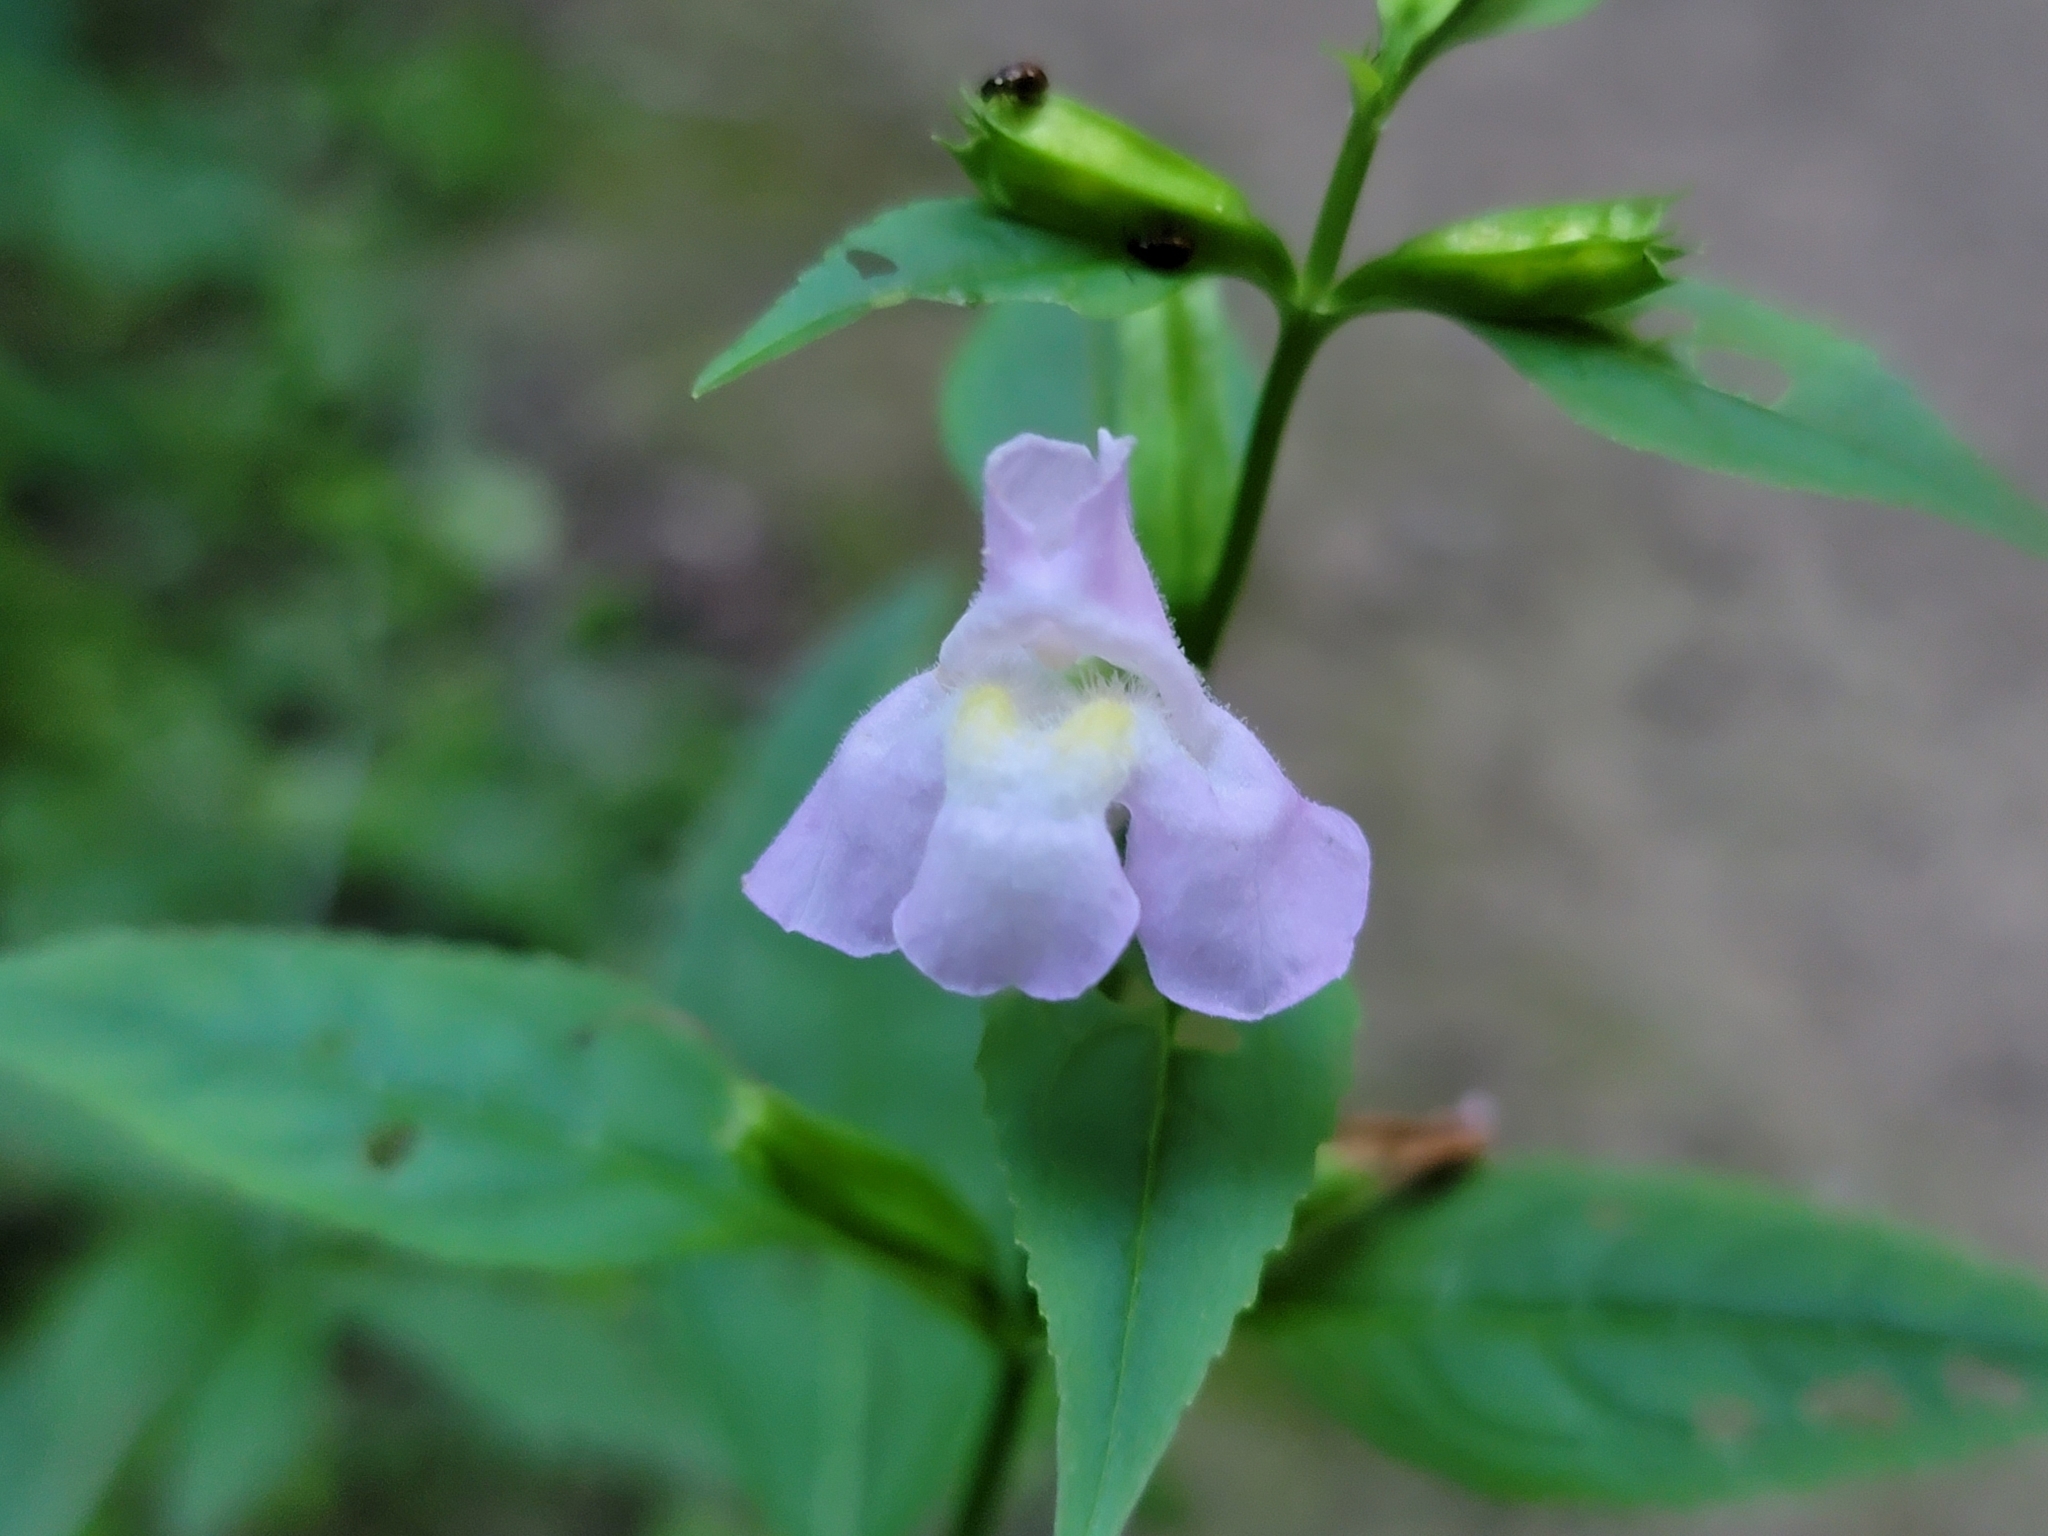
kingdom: Plantae
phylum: Tracheophyta
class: Magnoliopsida
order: Lamiales
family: Phrymaceae
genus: Mimulus
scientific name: Mimulus alatus
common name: Sharp-wing monkey-flower
